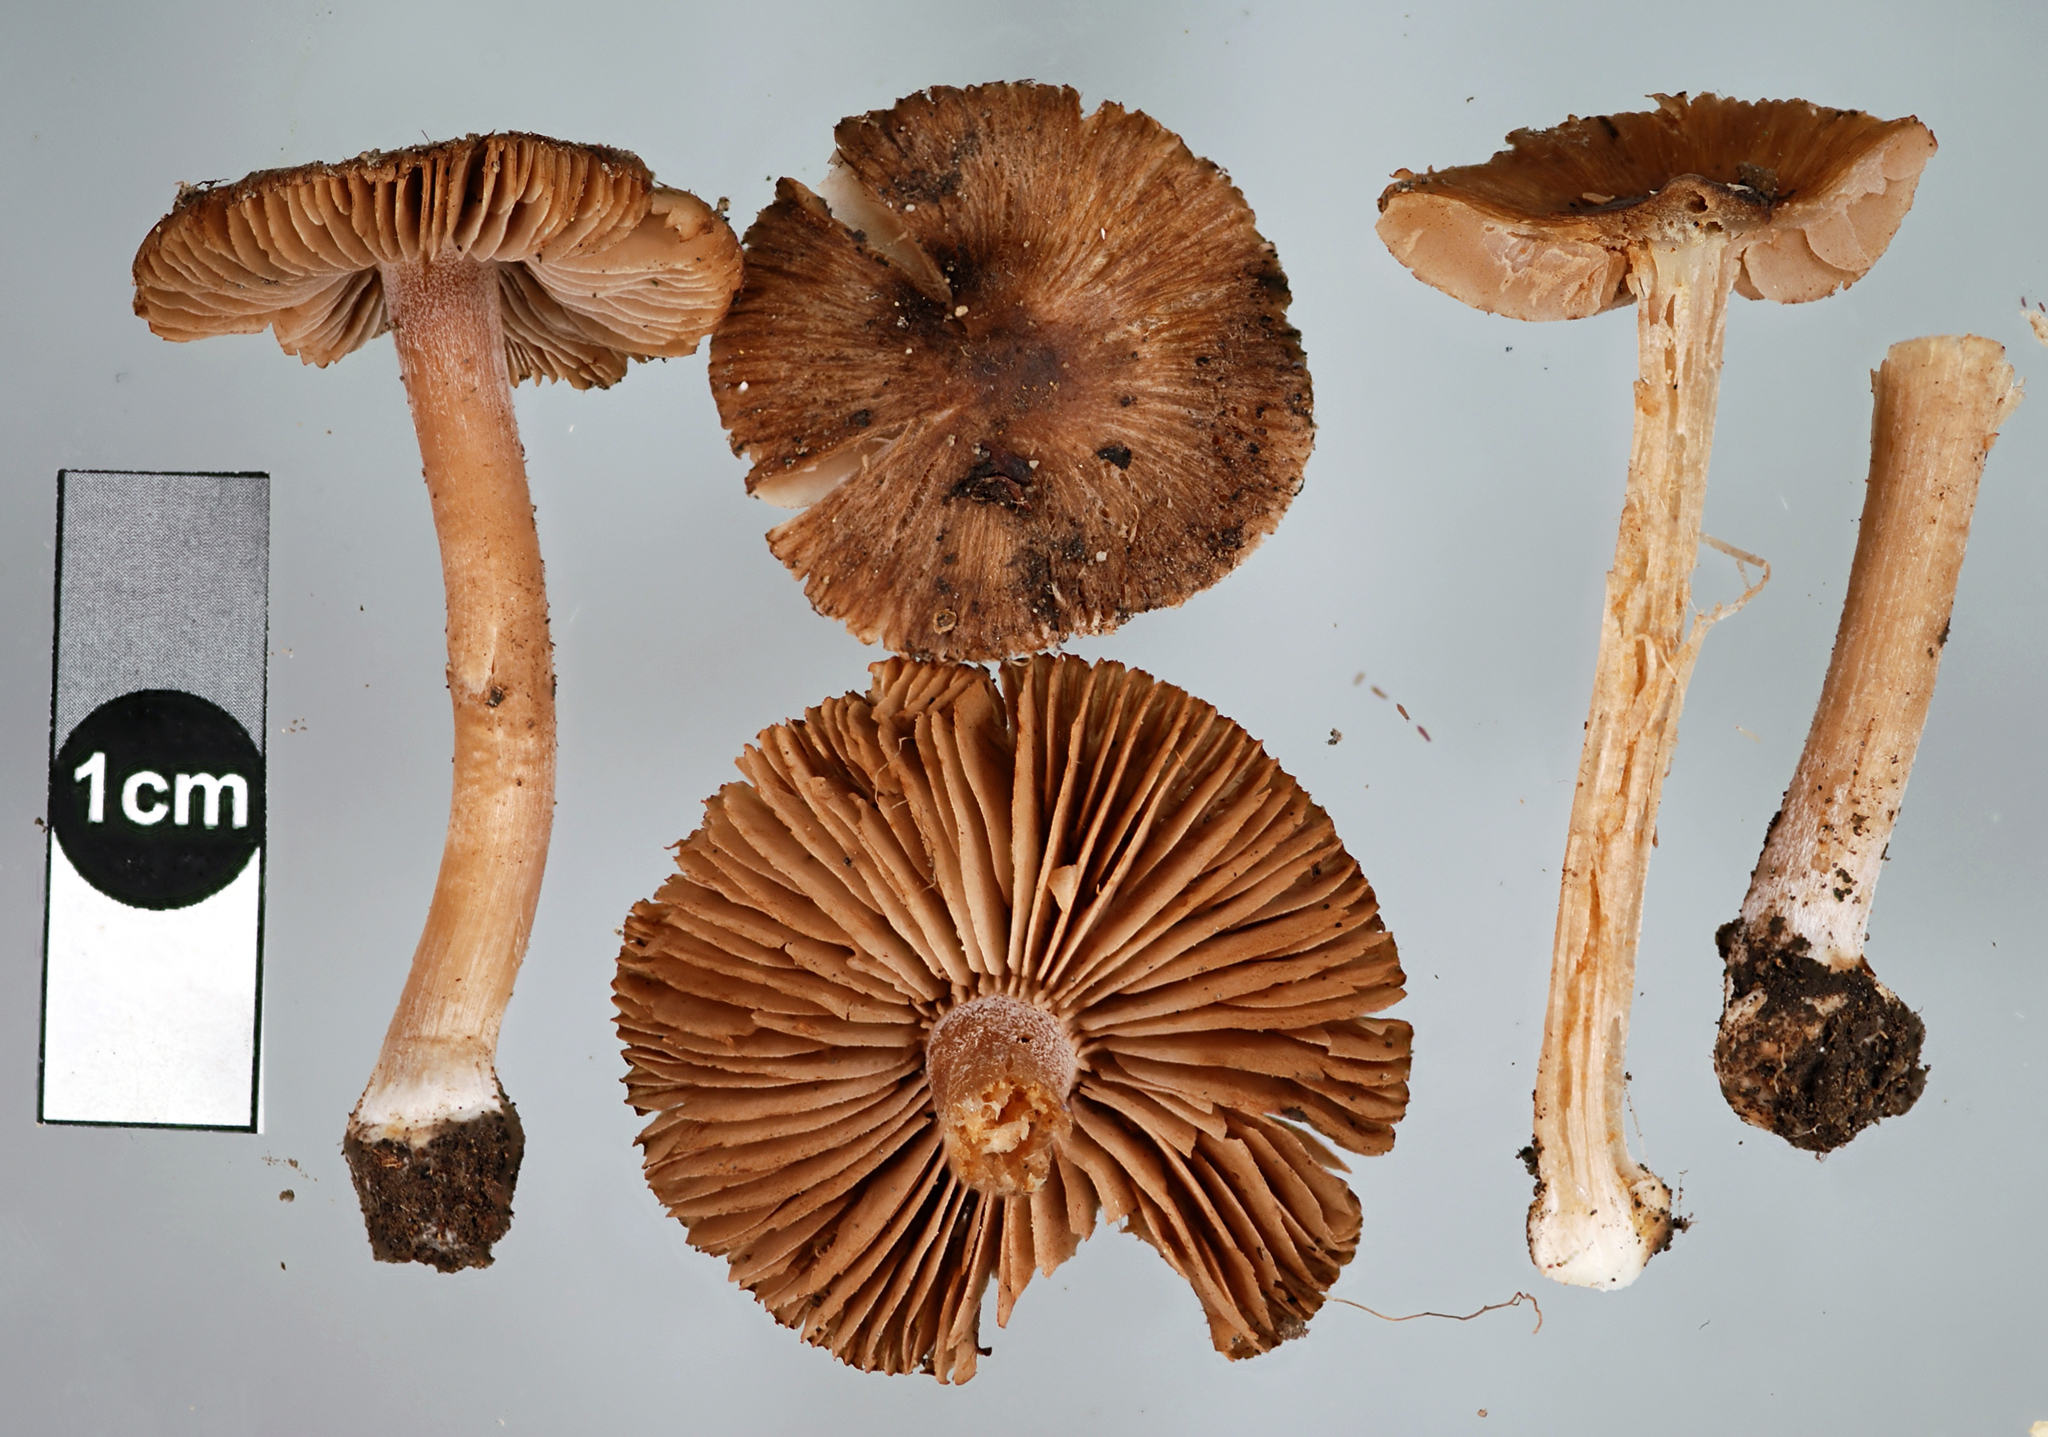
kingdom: Fungi
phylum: Basidiomycota
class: Agaricomycetes
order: Agaricales
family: Inocybaceae
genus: Inocybe
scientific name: Inocybe bulbinella
